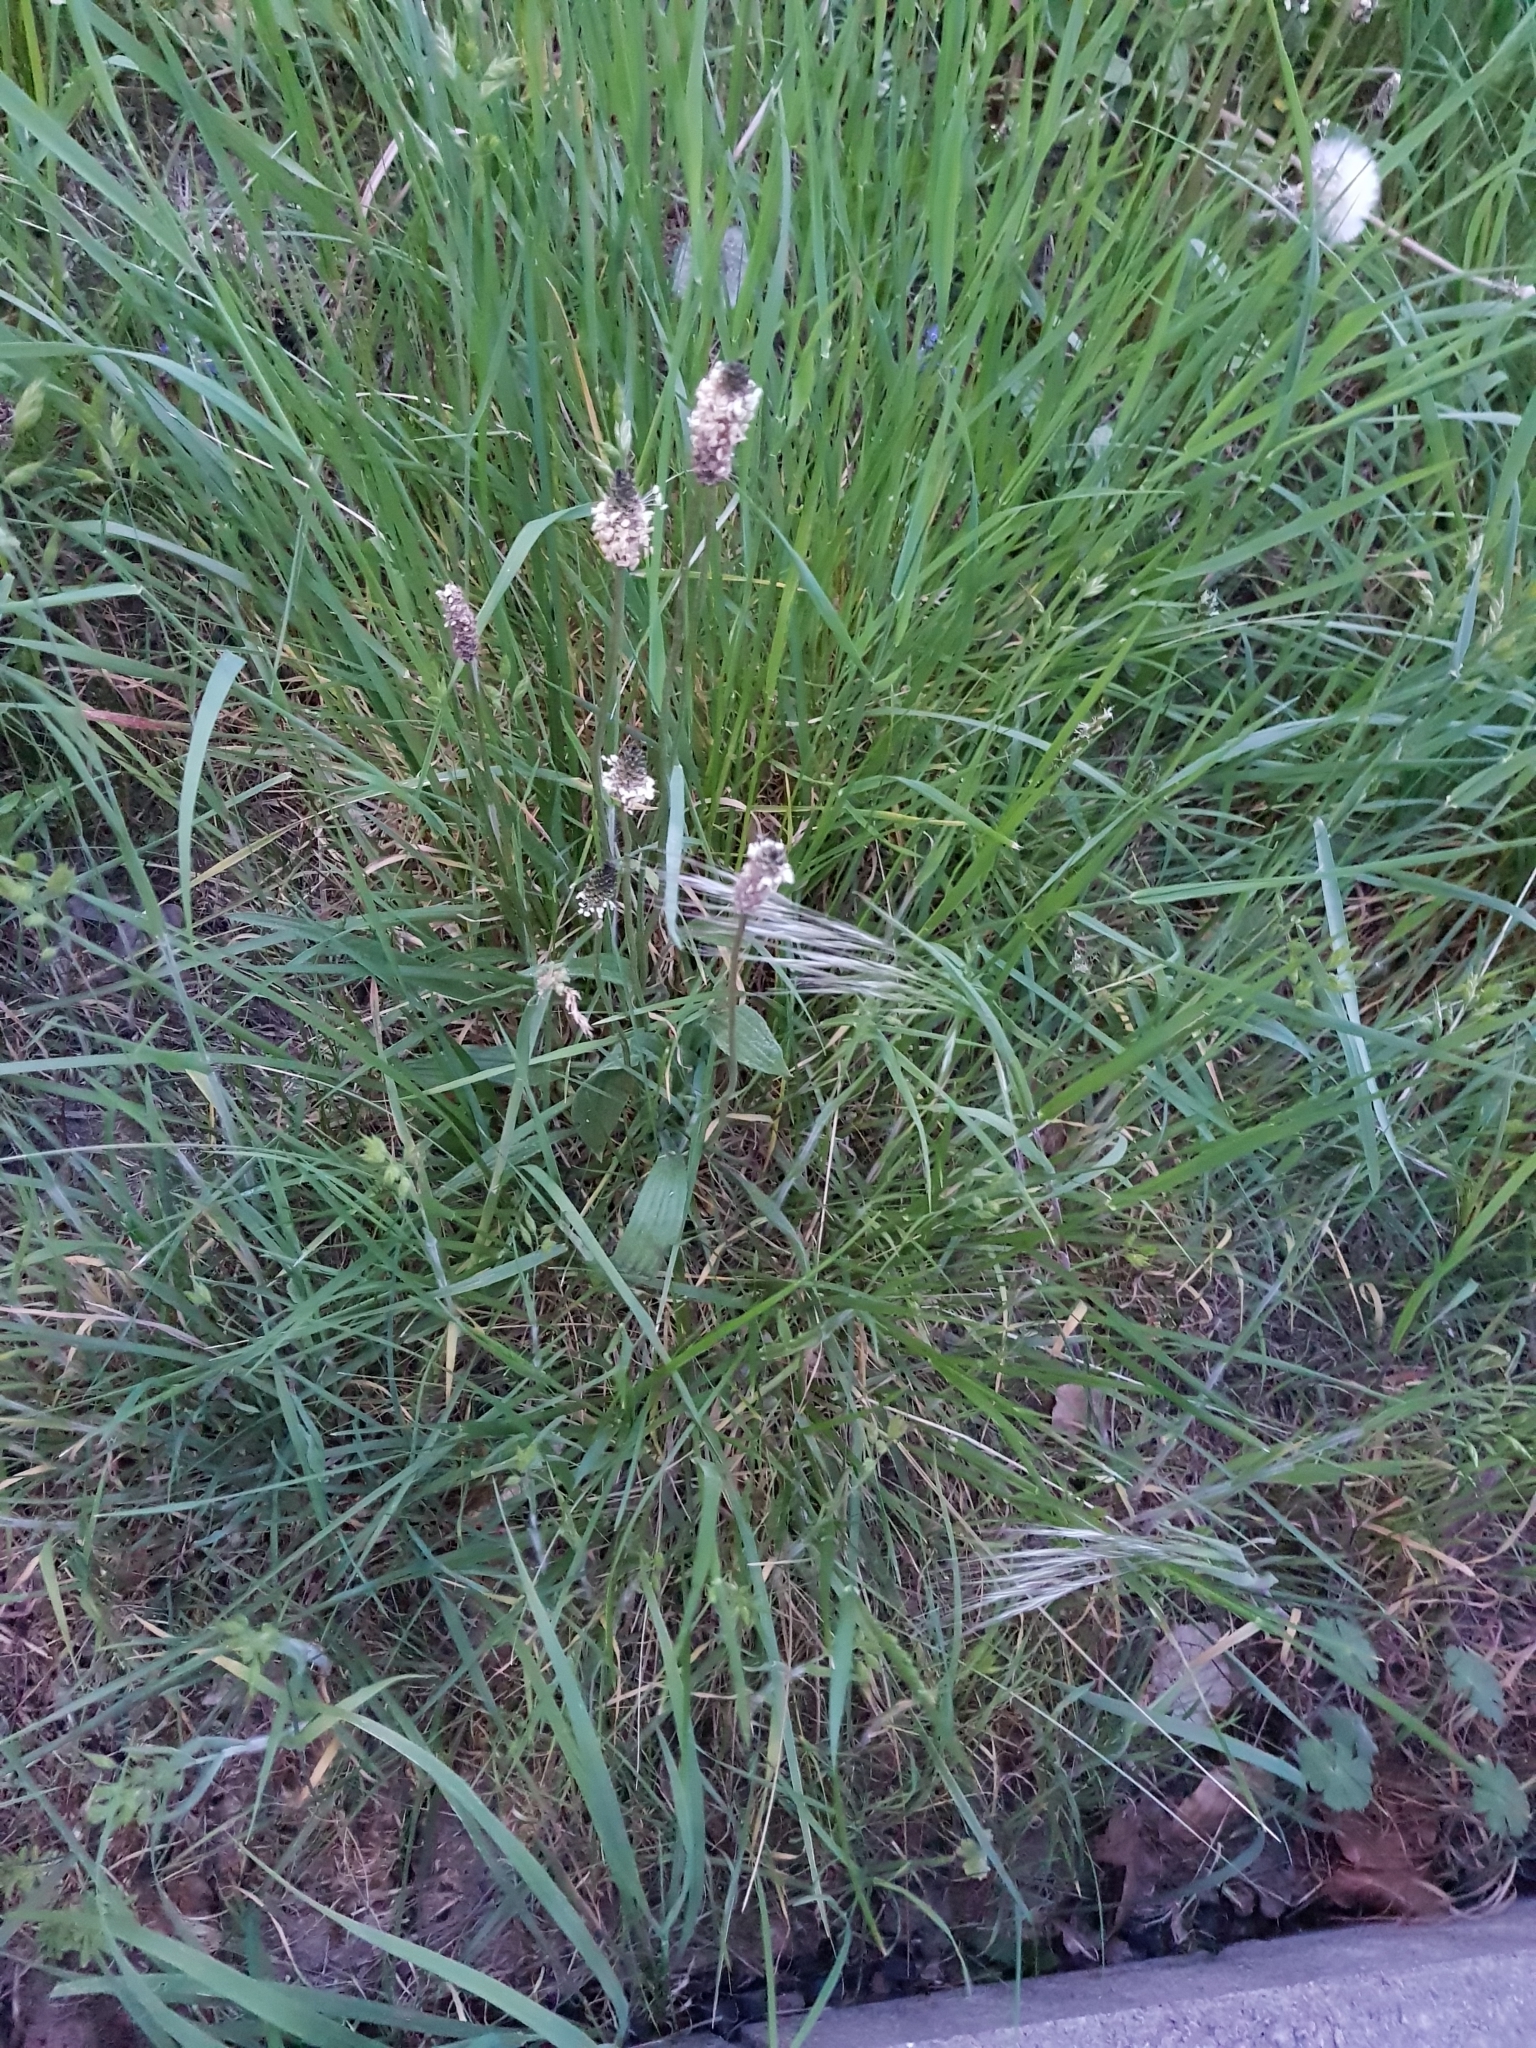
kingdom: Plantae
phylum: Tracheophyta
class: Magnoliopsida
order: Lamiales
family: Plantaginaceae
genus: Plantago
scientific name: Plantago lanceolata
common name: Ribwort plantain
